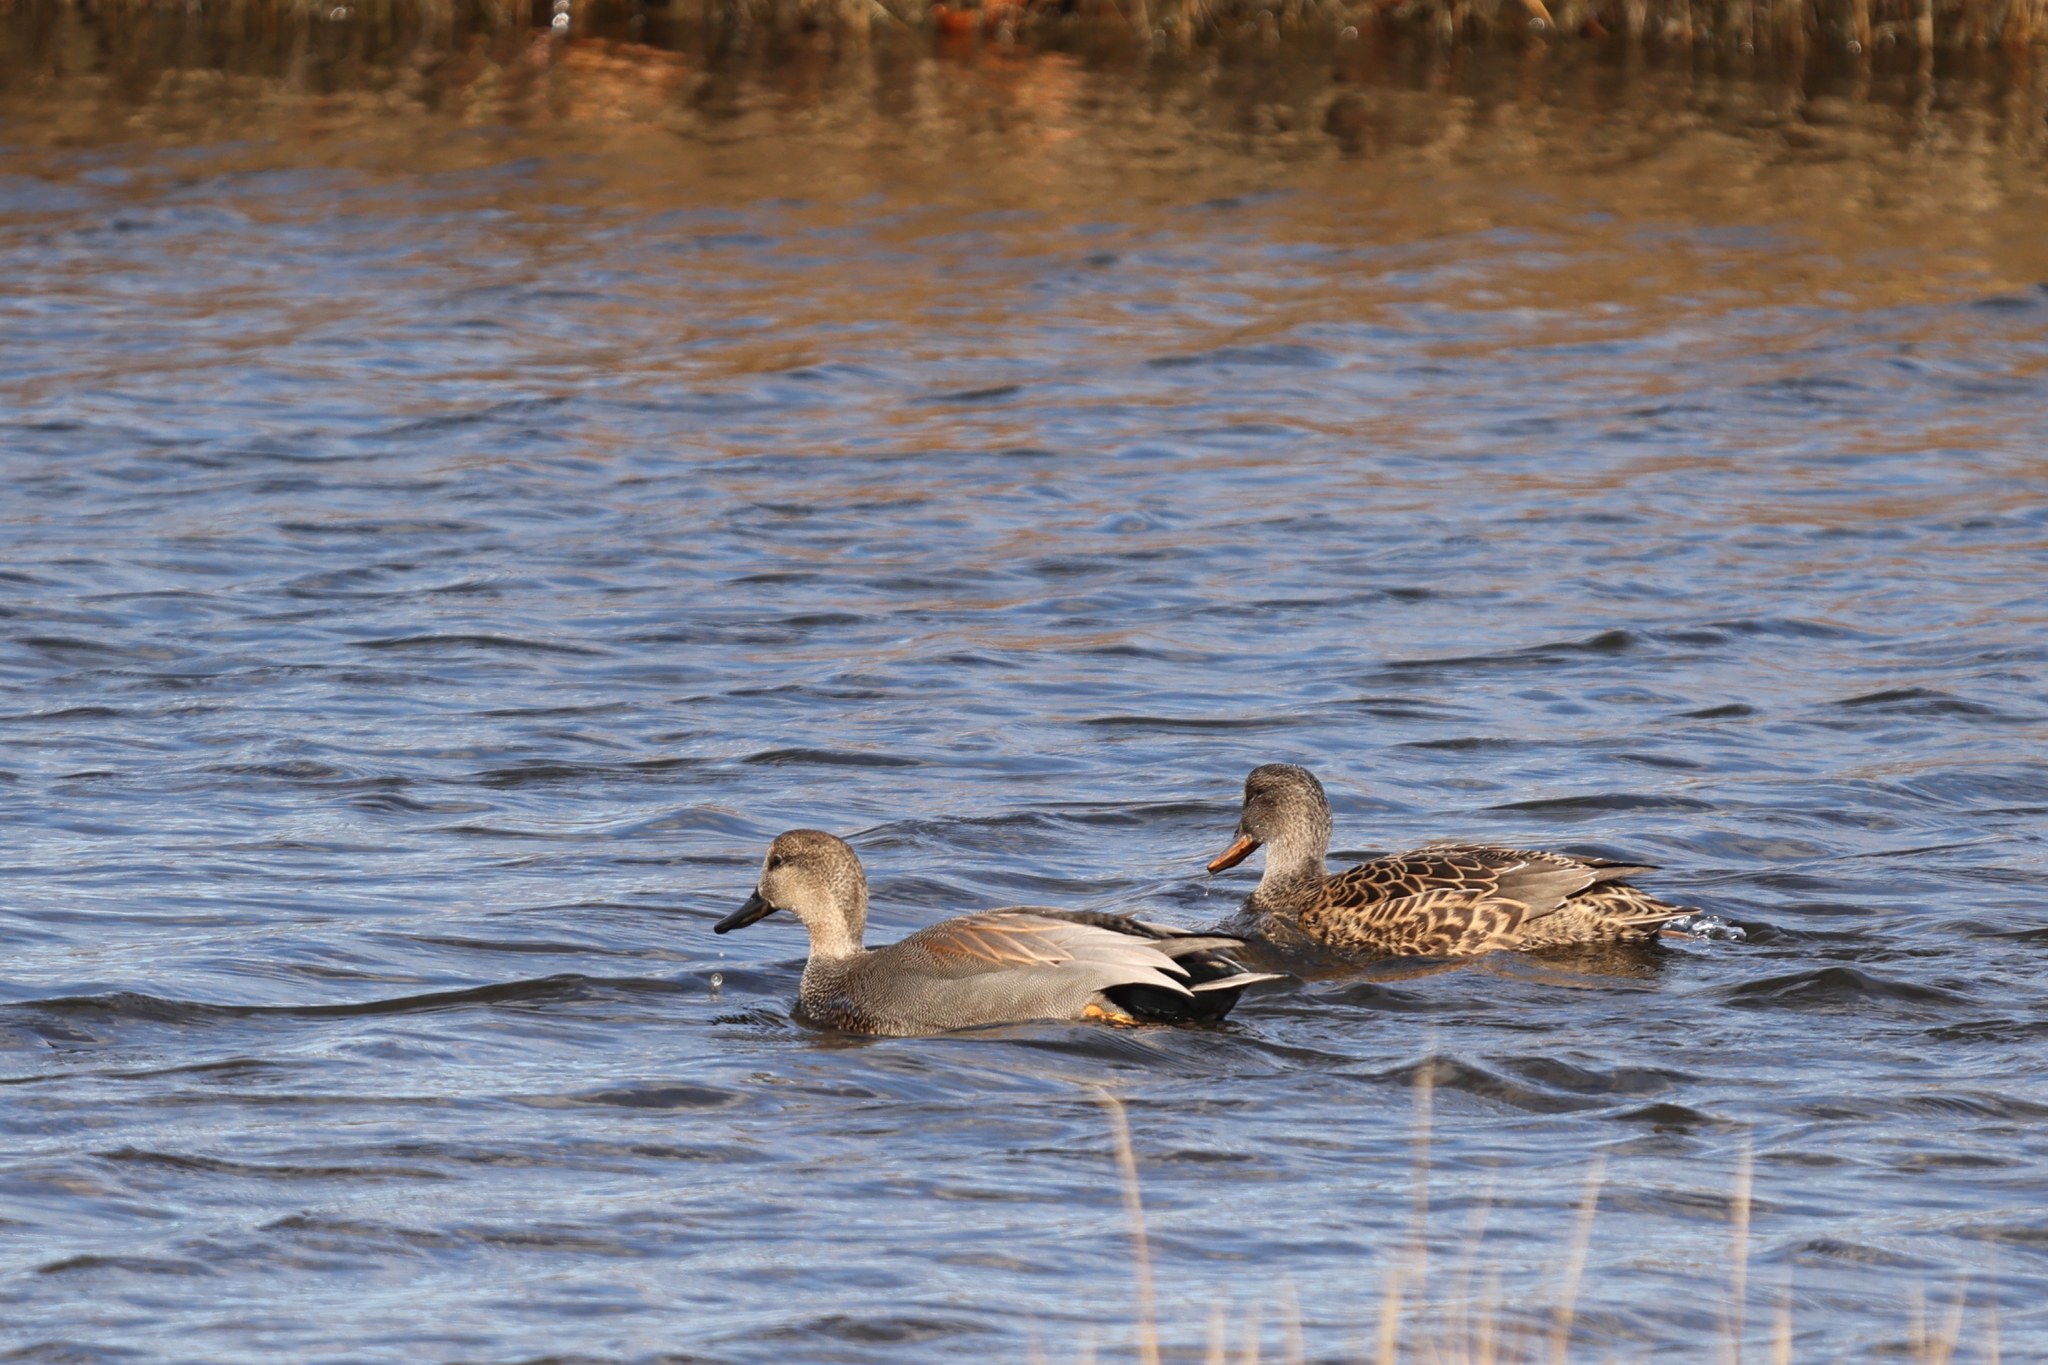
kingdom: Animalia
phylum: Chordata
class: Aves
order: Anseriformes
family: Anatidae
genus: Mareca
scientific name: Mareca strepera
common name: Gadwall
